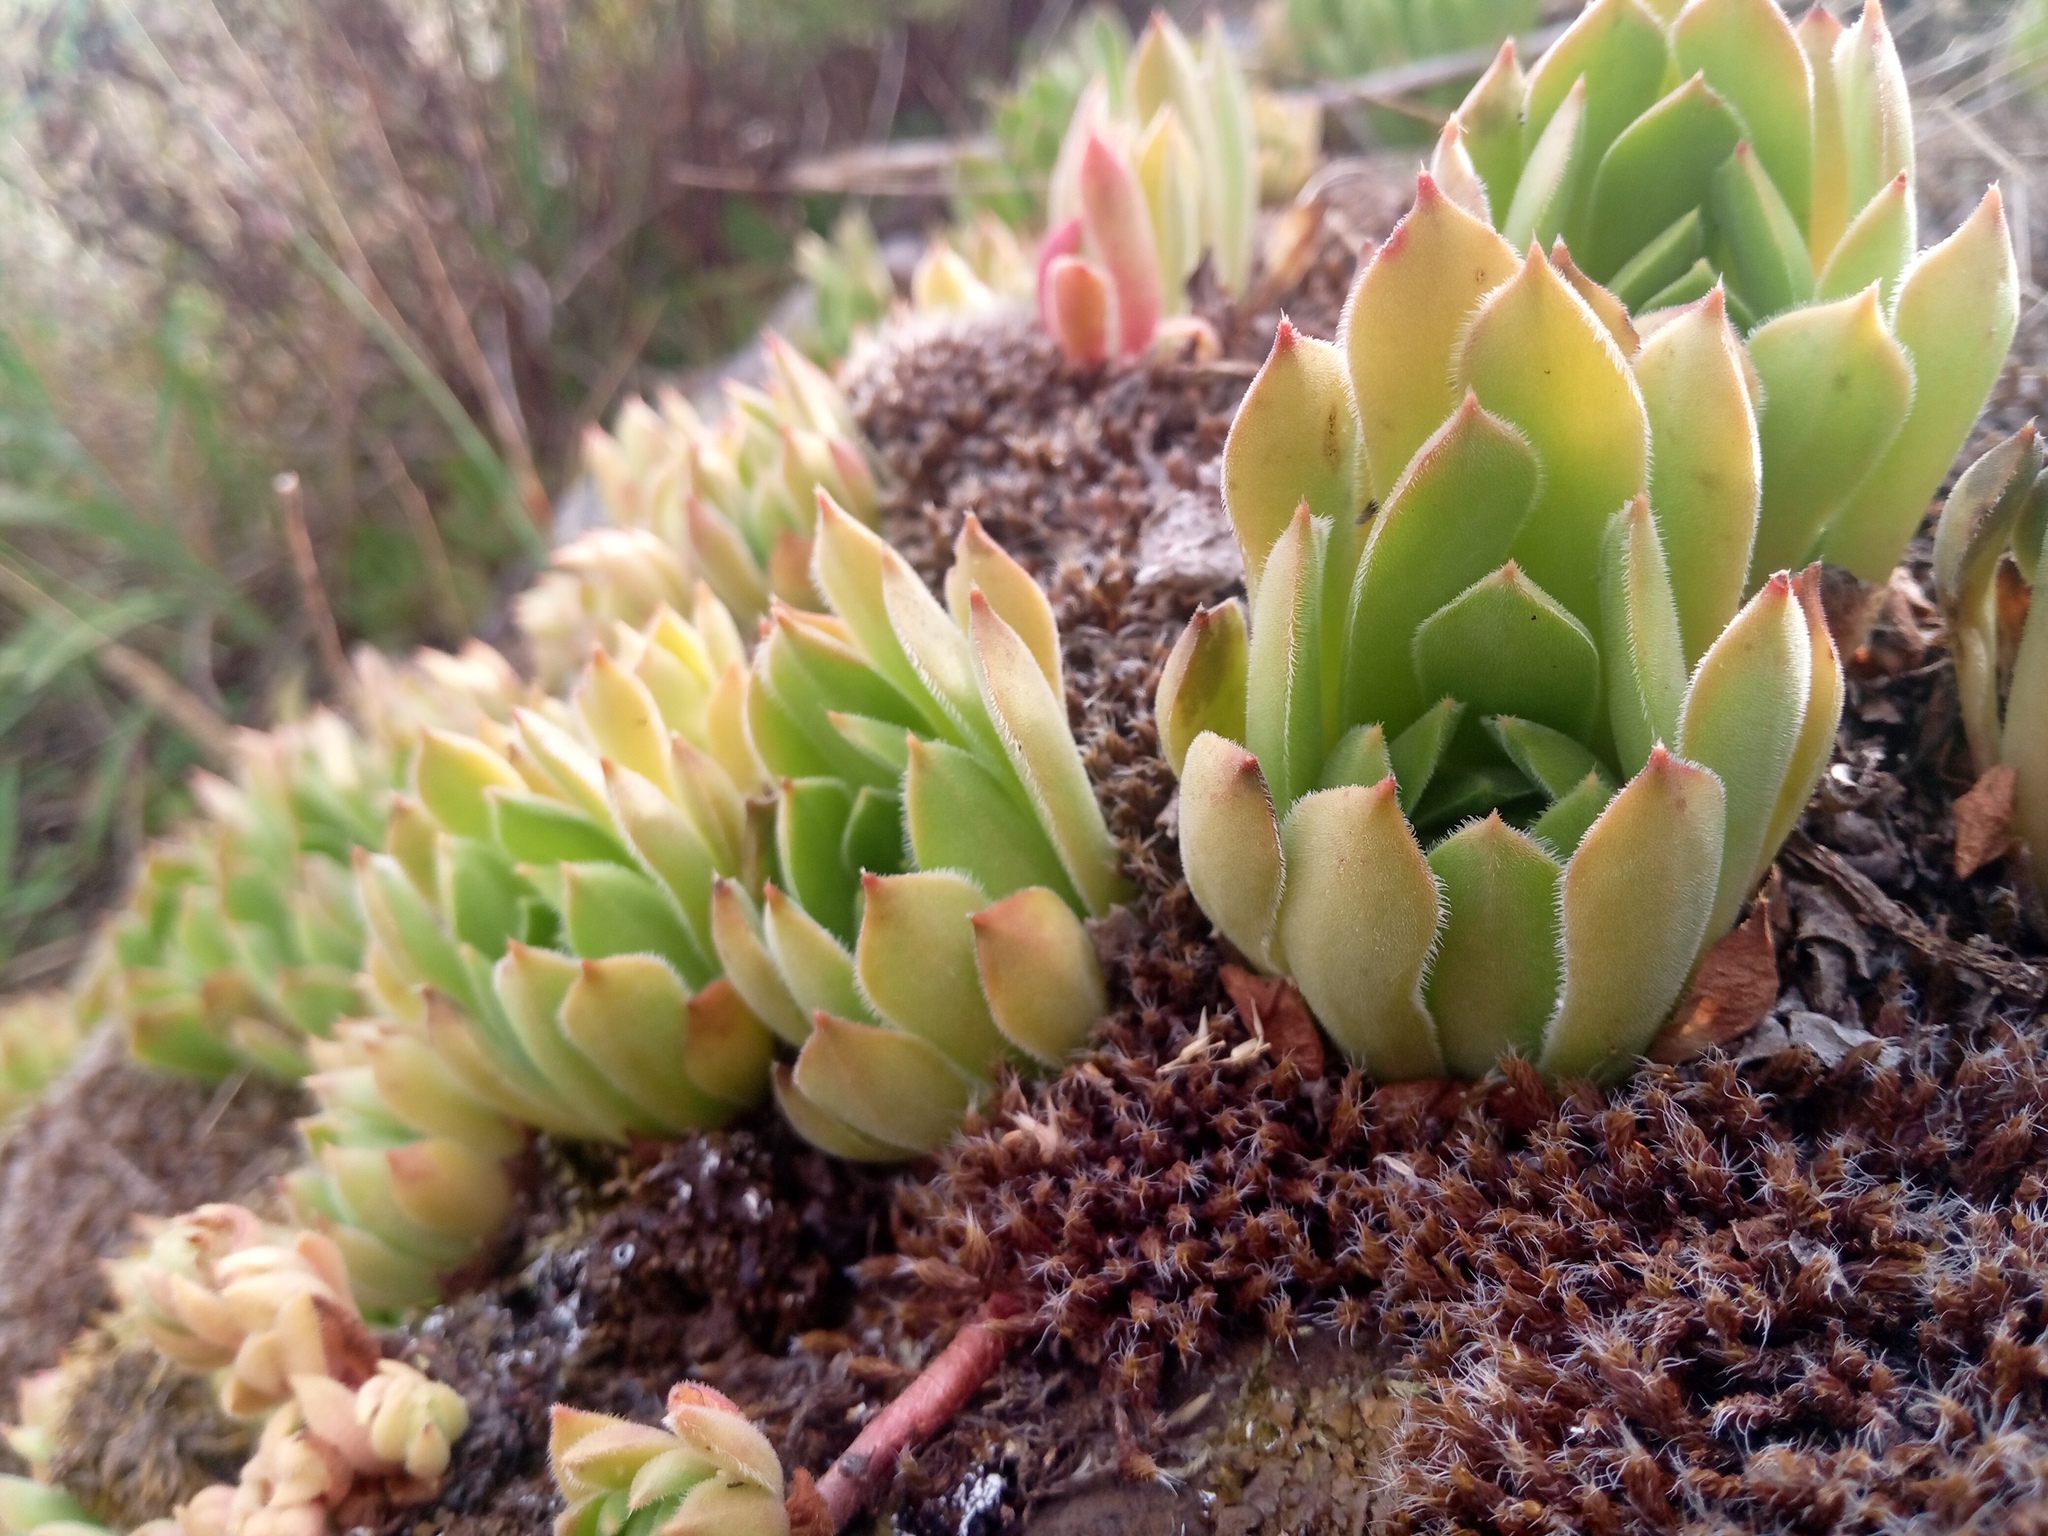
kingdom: Plantae
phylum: Tracheophyta
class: Magnoliopsida
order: Saxifragales
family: Crassulaceae
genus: Sempervivum
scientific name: Sempervivum ruthenicum
